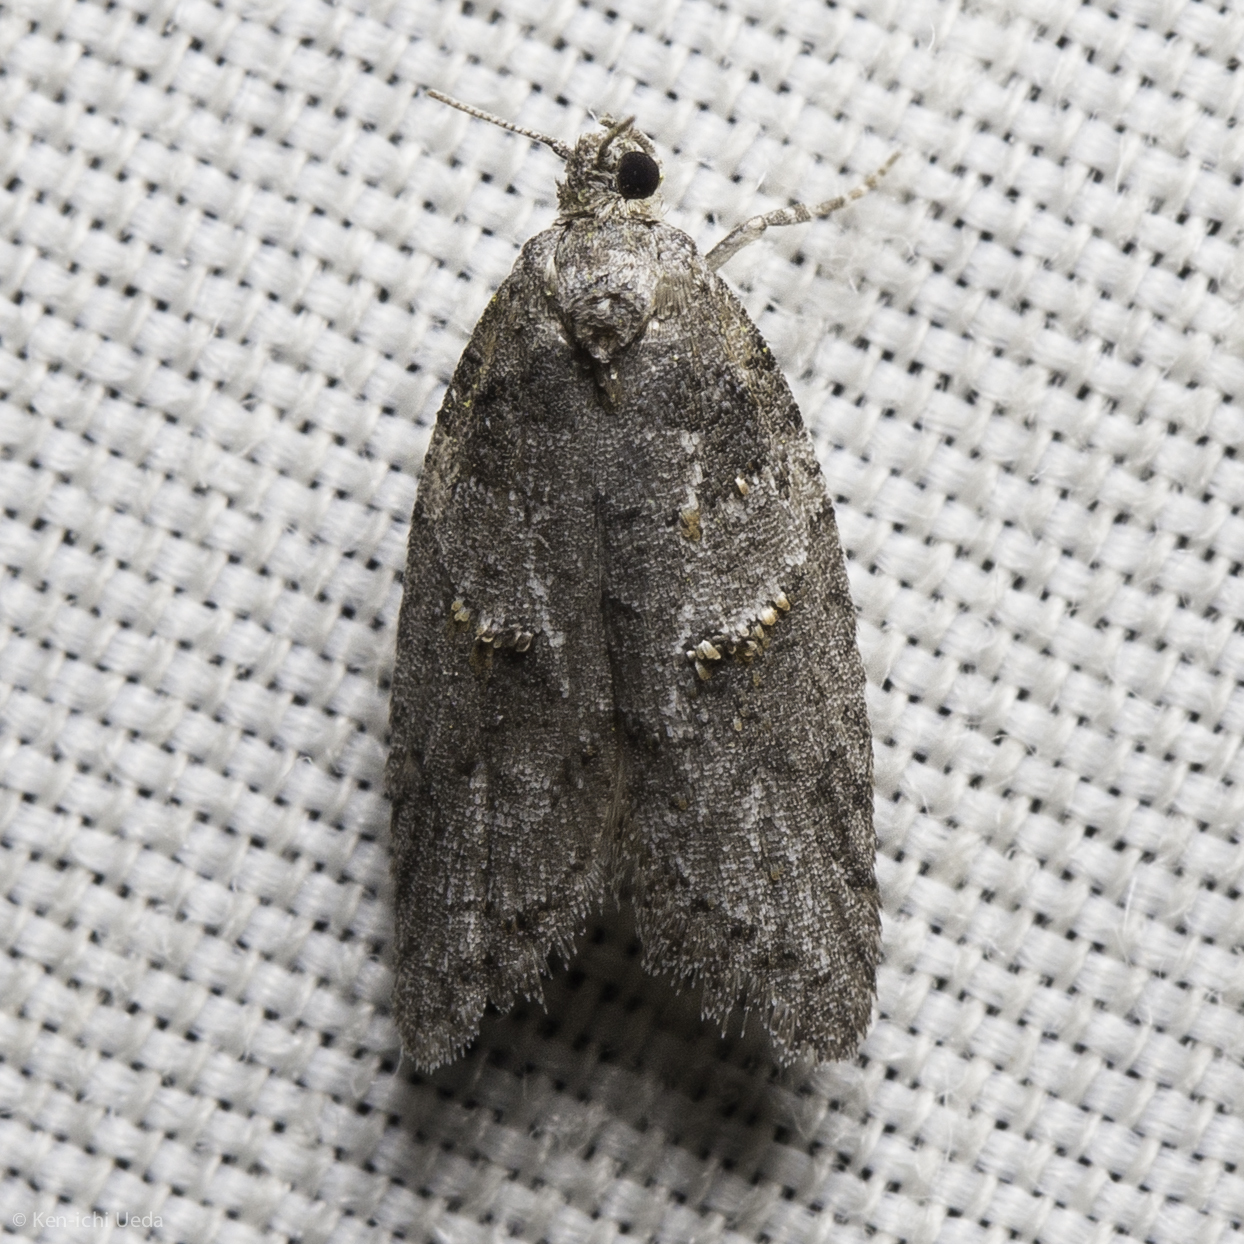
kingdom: Animalia
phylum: Arthropoda
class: Insecta
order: Lepidoptera
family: Tortricidae
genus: Decodes
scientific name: Decodes fragariana
